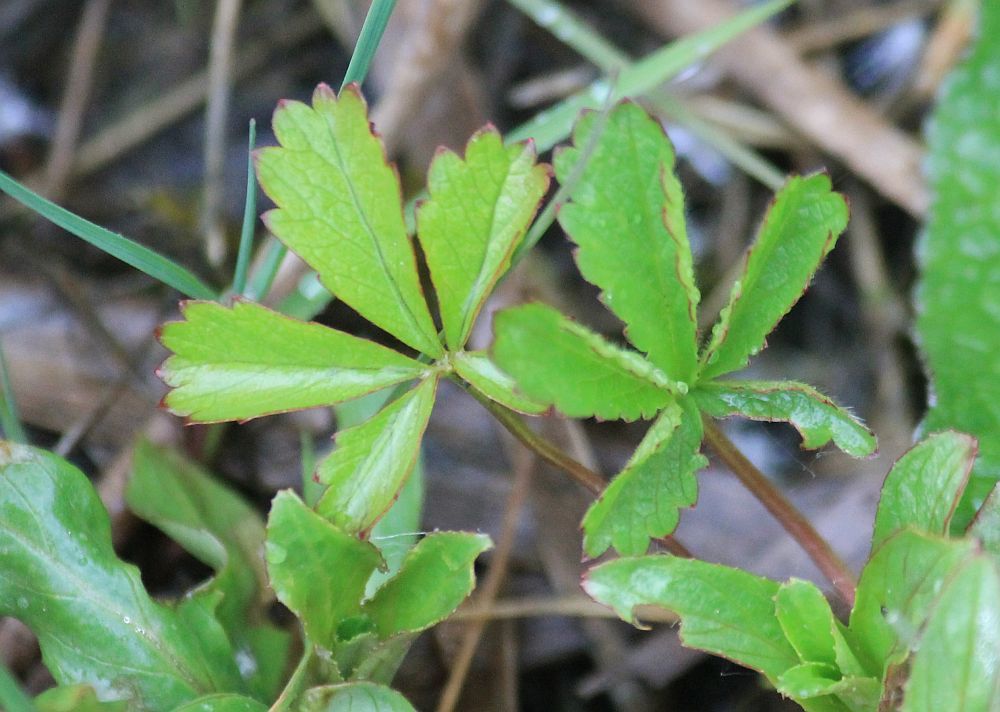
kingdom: Plantae
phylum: Tracheophyta
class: Magnoliopsida
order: Rosales
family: Rosaceae
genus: Potentilla
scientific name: Potentilla reptans
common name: Creeping cinquefoil
